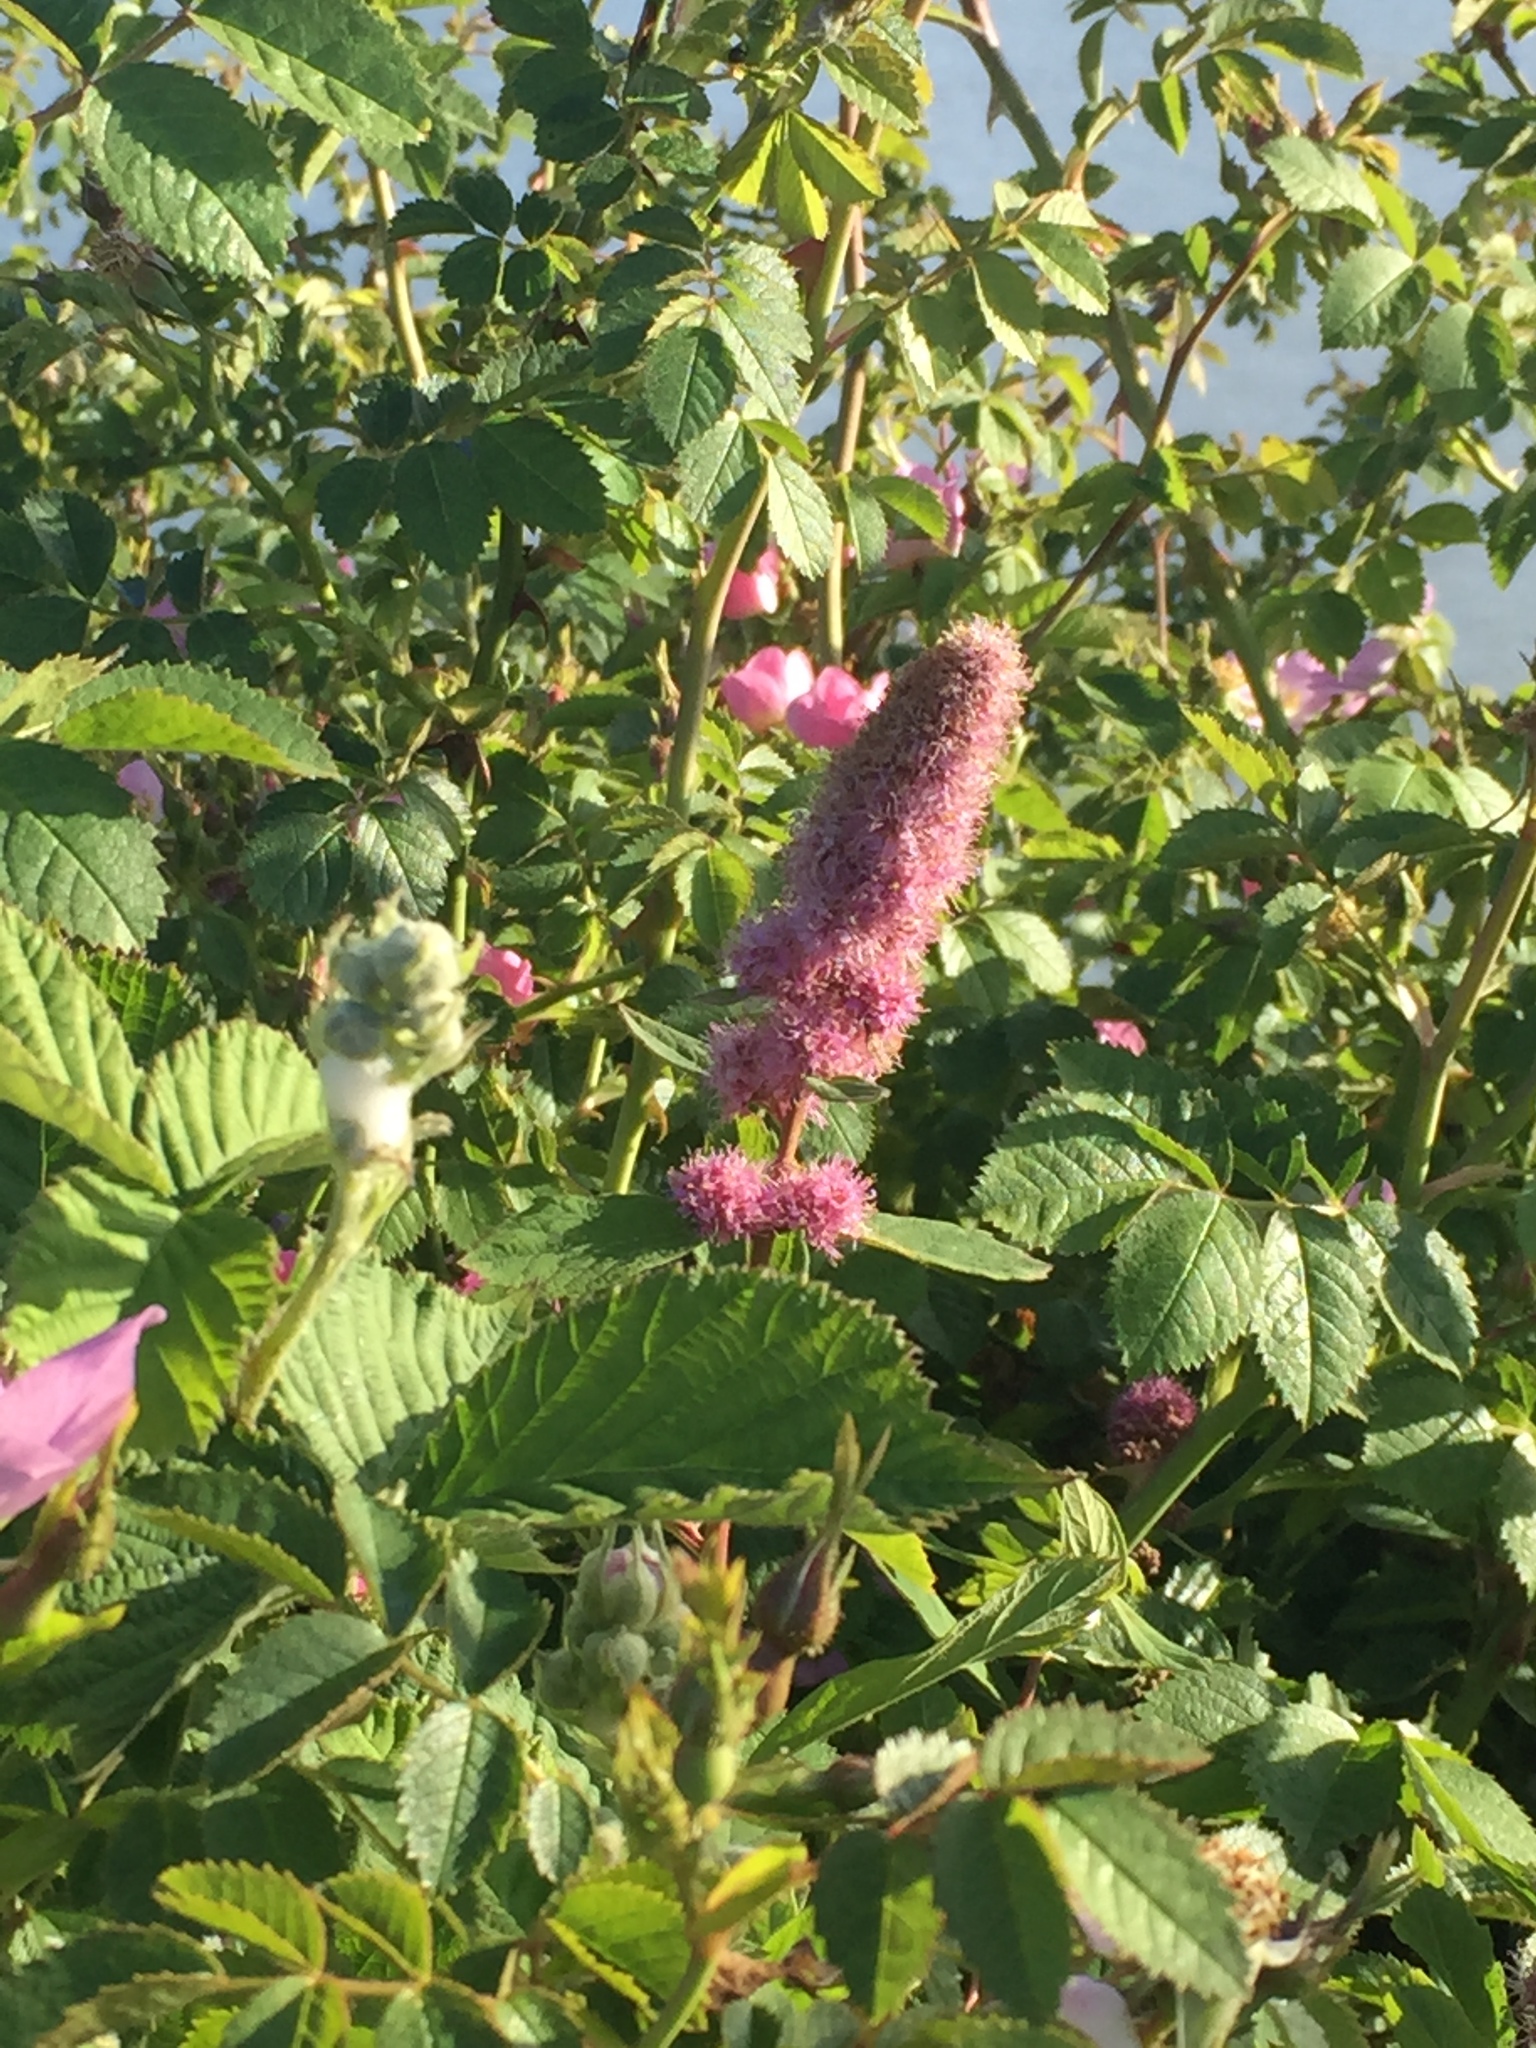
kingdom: Plantae
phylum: Tracheophyta
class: Magnoliopsida
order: Rosales
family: Rosaceae
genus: Spiraea
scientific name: Spiraea douglasii
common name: Steeplebush
